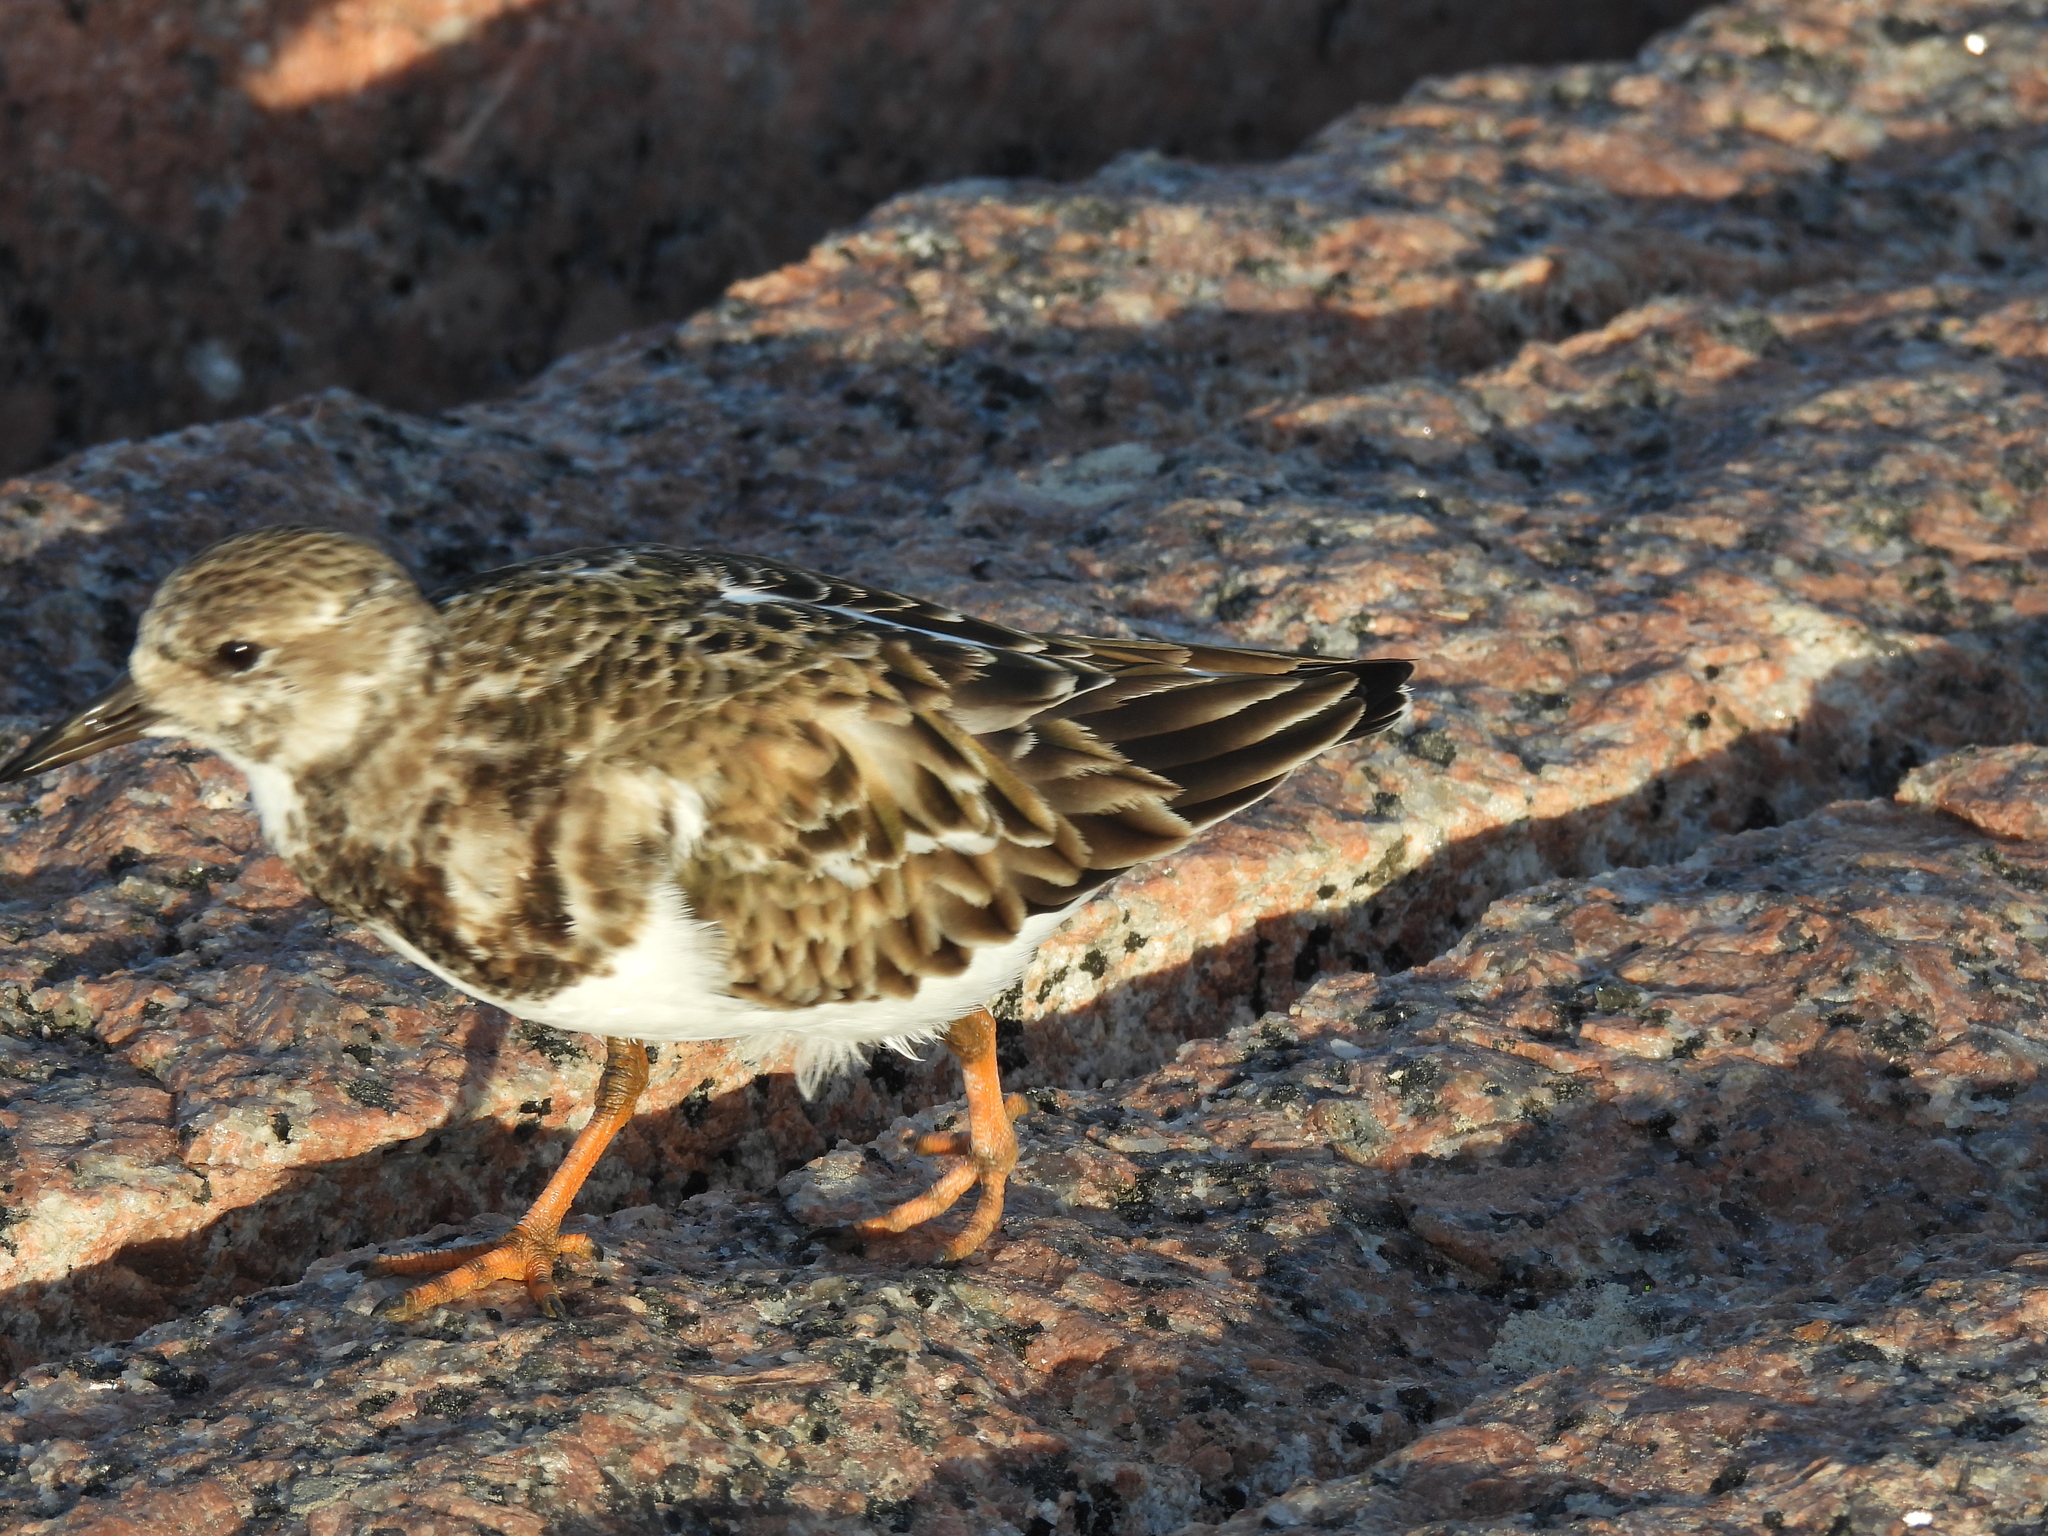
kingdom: Animalia
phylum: Chordata
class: Aves
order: Charadriiformes
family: Scolopacidae
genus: Arenaria
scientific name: Arenaria interpres
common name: Ruddy turnstone
